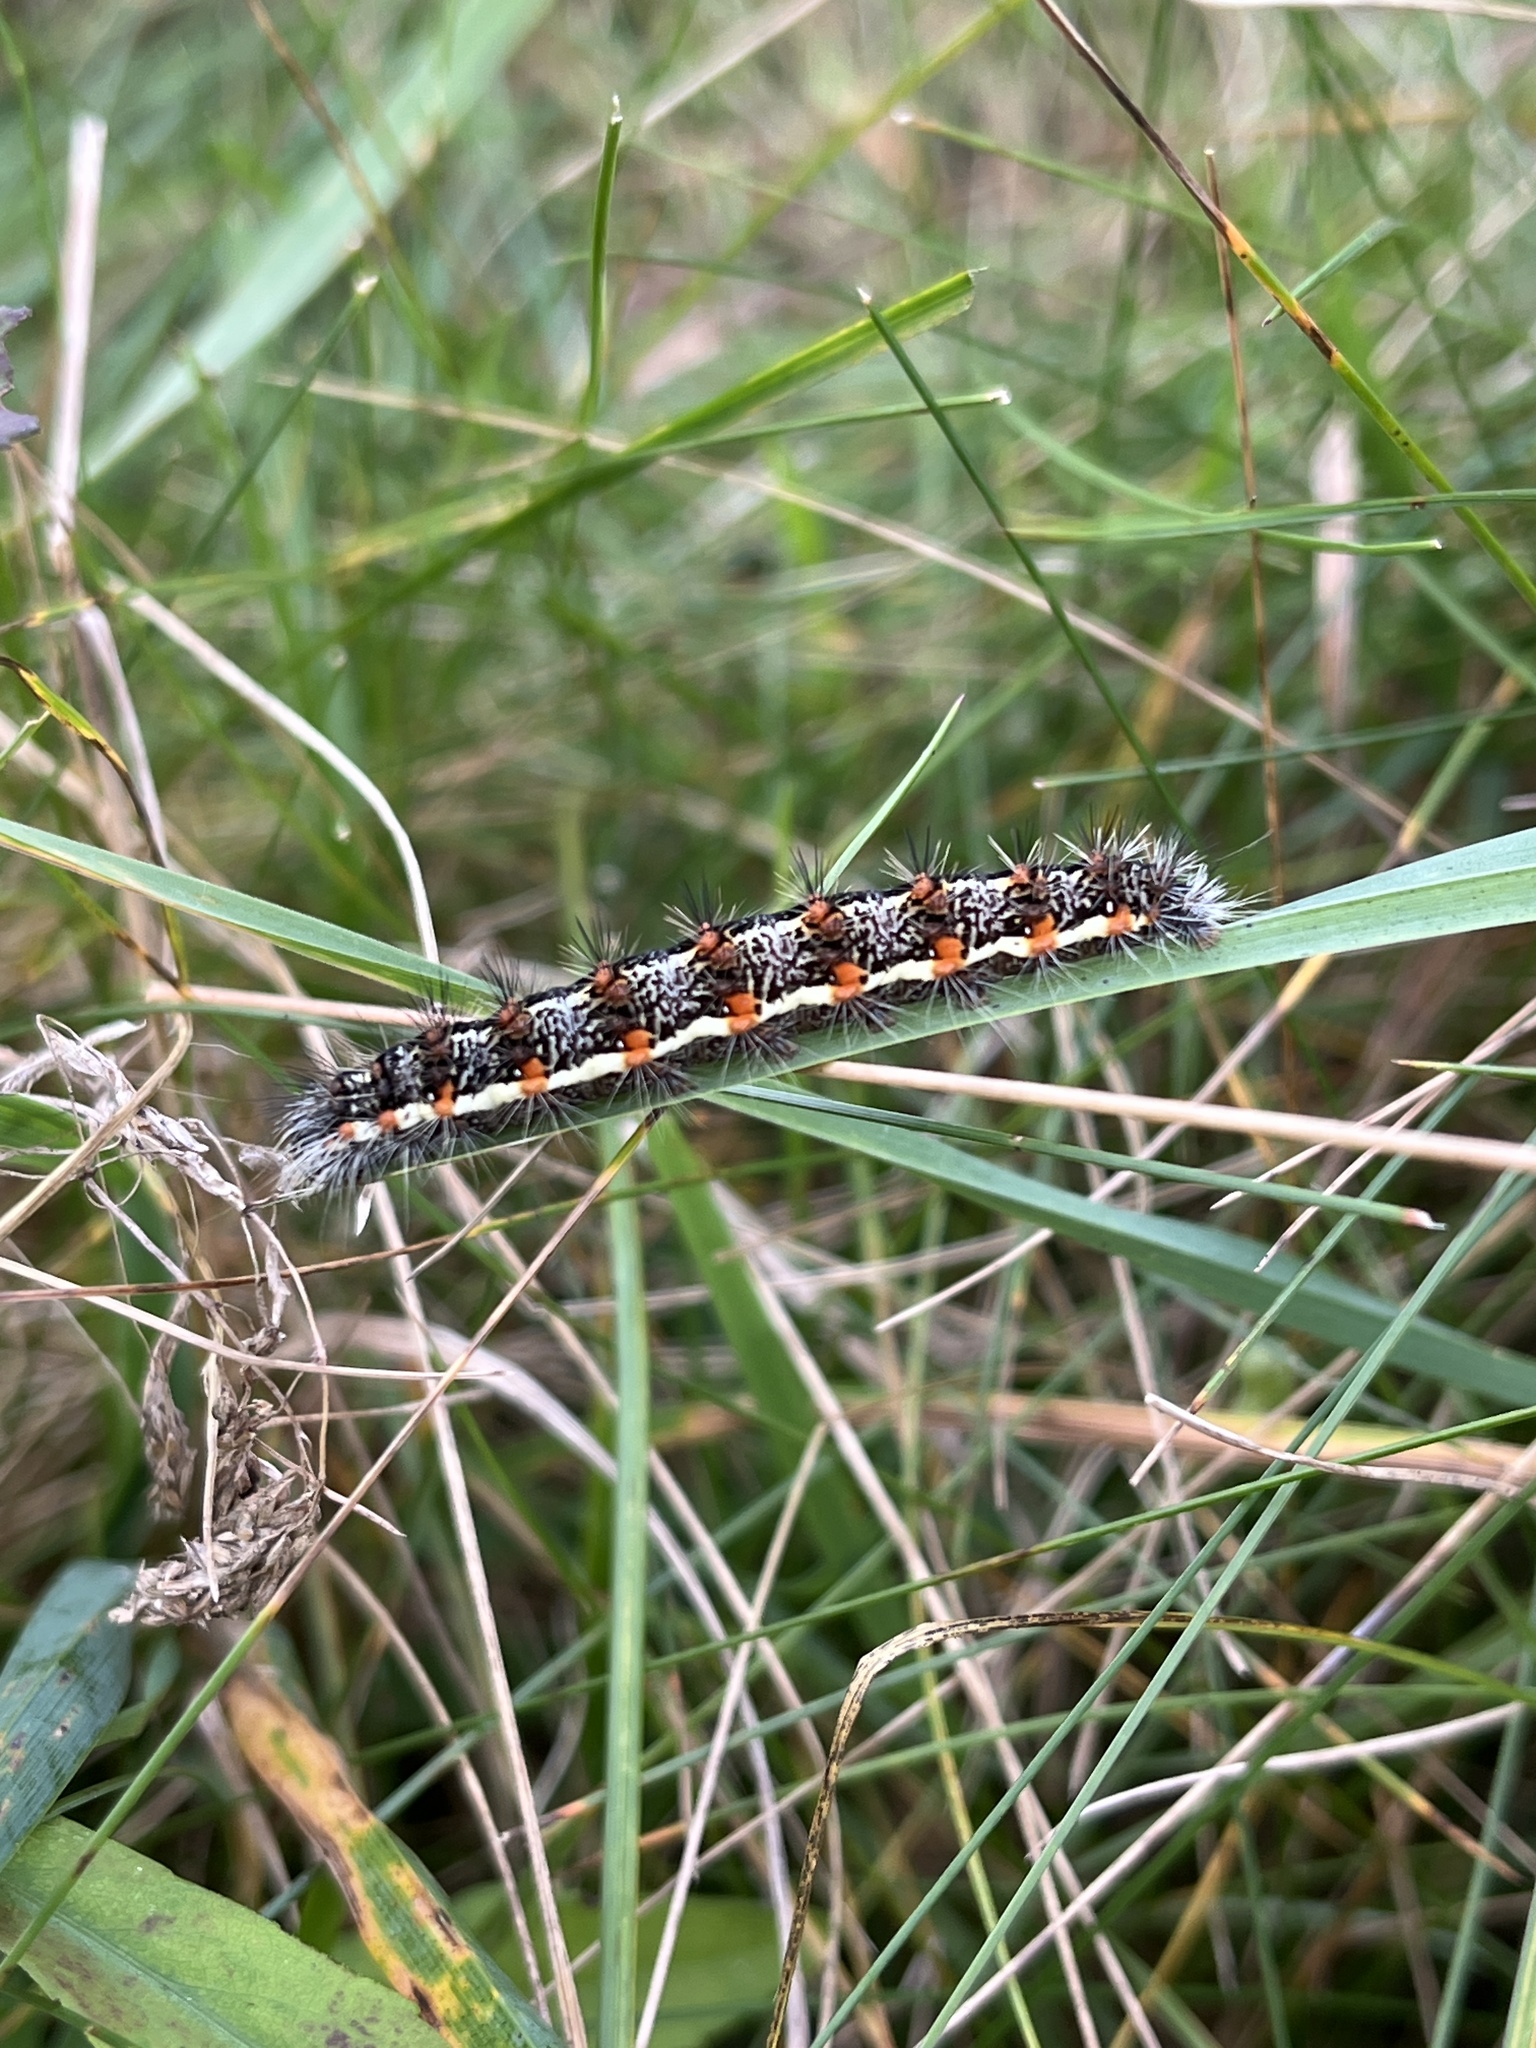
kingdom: Animalia
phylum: Arthropoda
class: Insecta
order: Lepidoptera
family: Noctuidae
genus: Acronicta
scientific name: Acronicta insularis
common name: Henry's marsh moth
